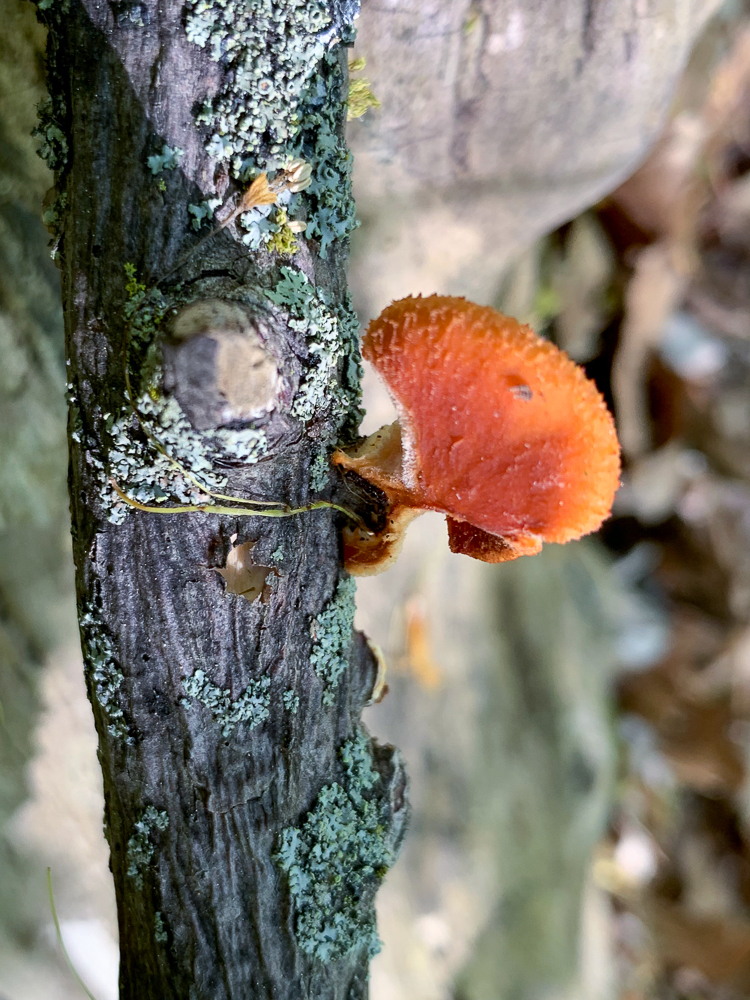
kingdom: Fungi
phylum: Basidiomycota
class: Agaricomycetes
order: Polyporales
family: Polyporaceae
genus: Neofavolus
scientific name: Neofavolus alveolaris
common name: Hexagonal-pored polypore
